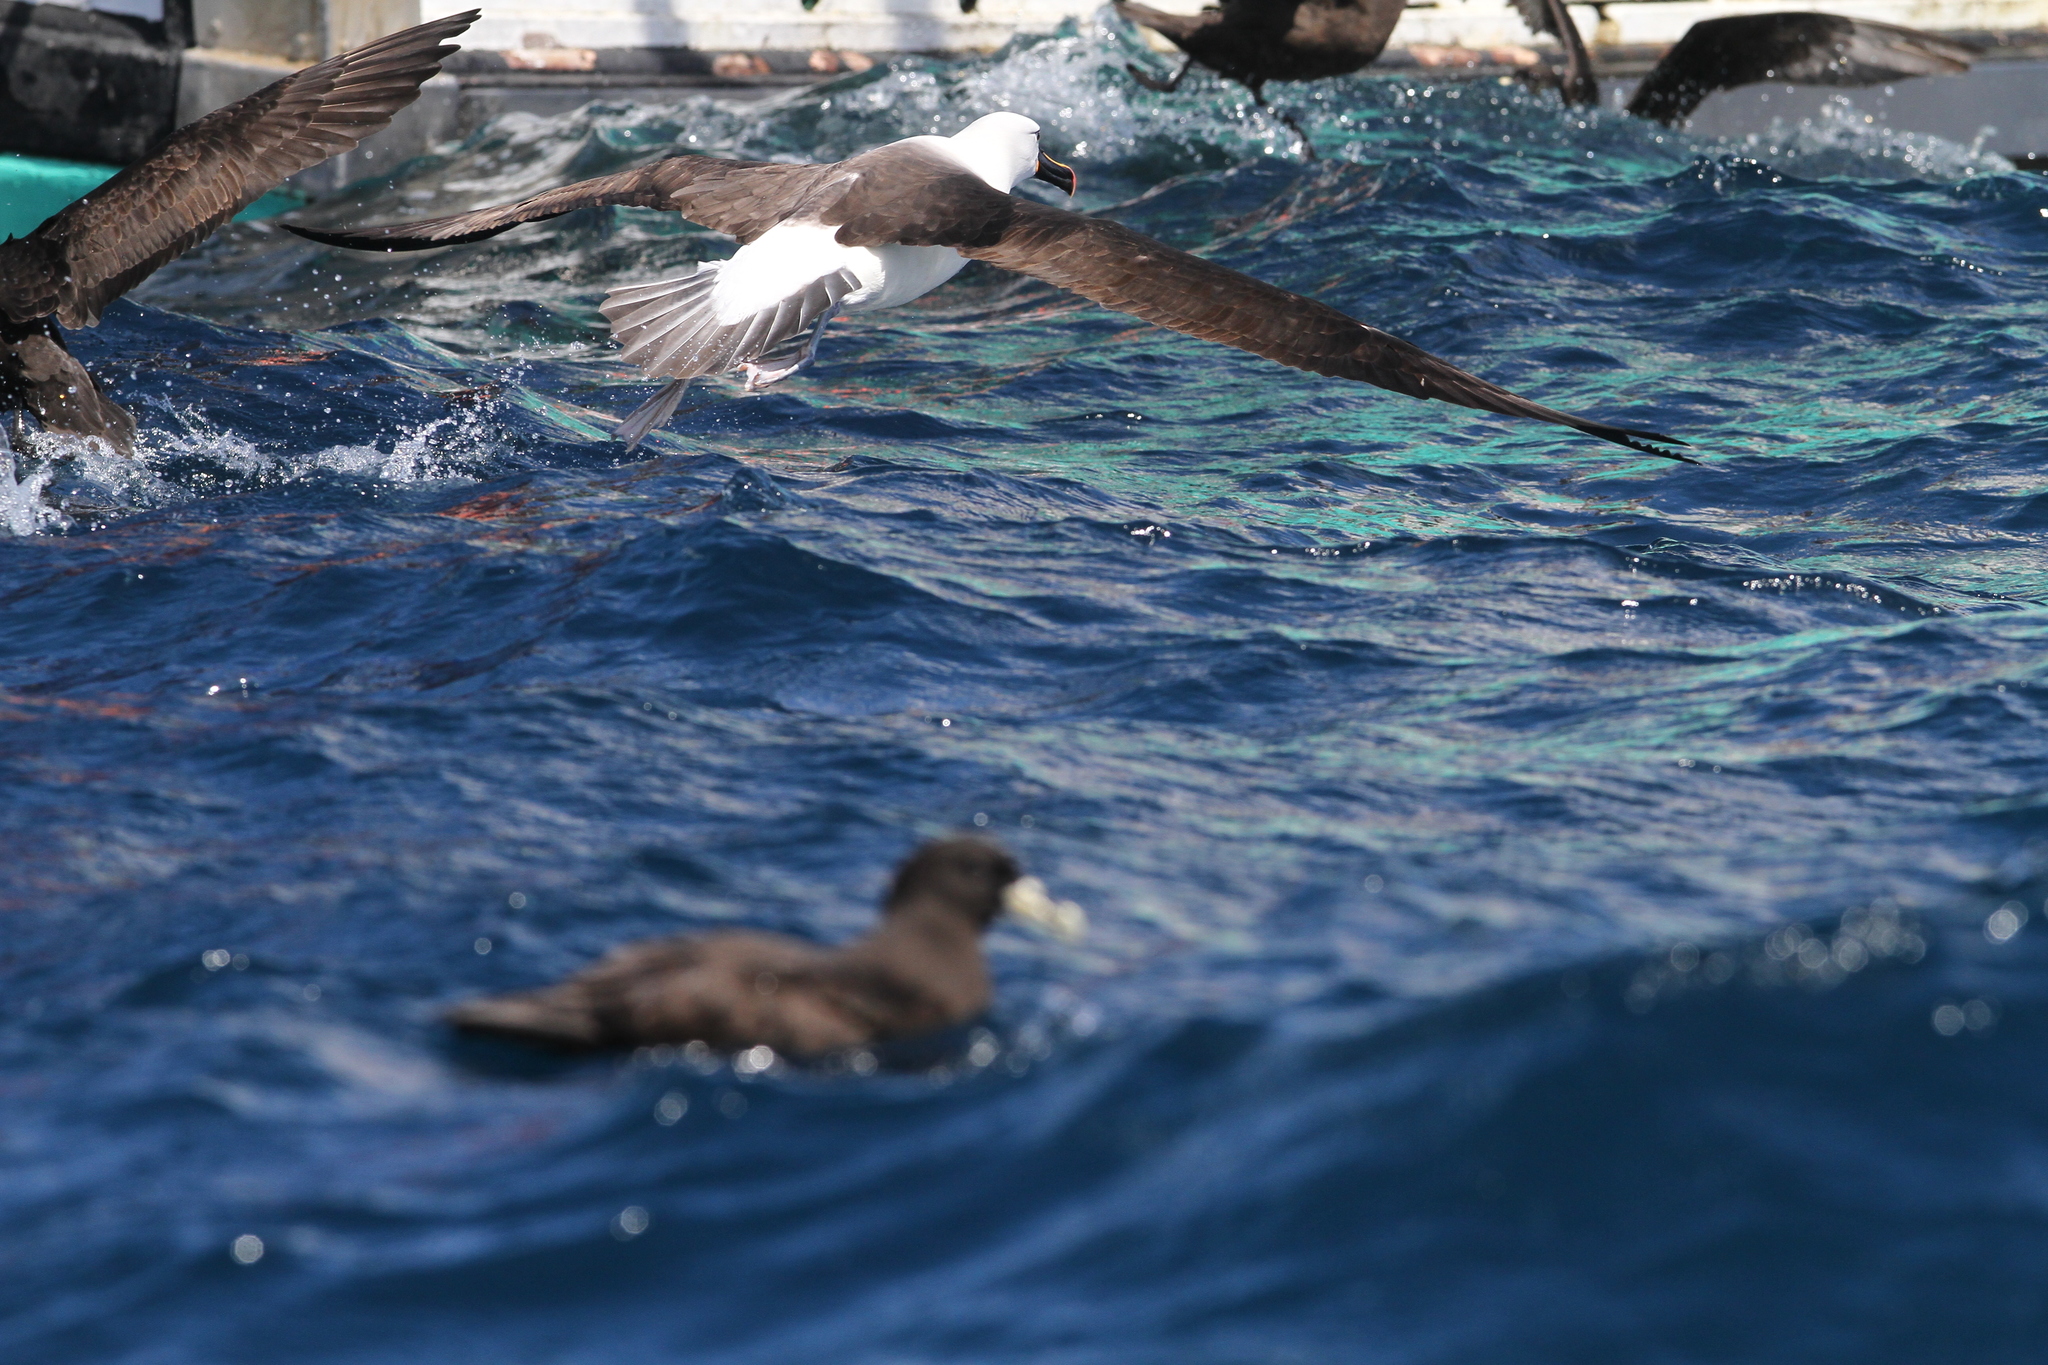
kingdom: Animalia
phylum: Chordata
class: Aves
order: Procellariiformes
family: Diomedeidae
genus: Thalassarche
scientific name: Thalassarche carteri
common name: Indian yellow-nosed albatross
